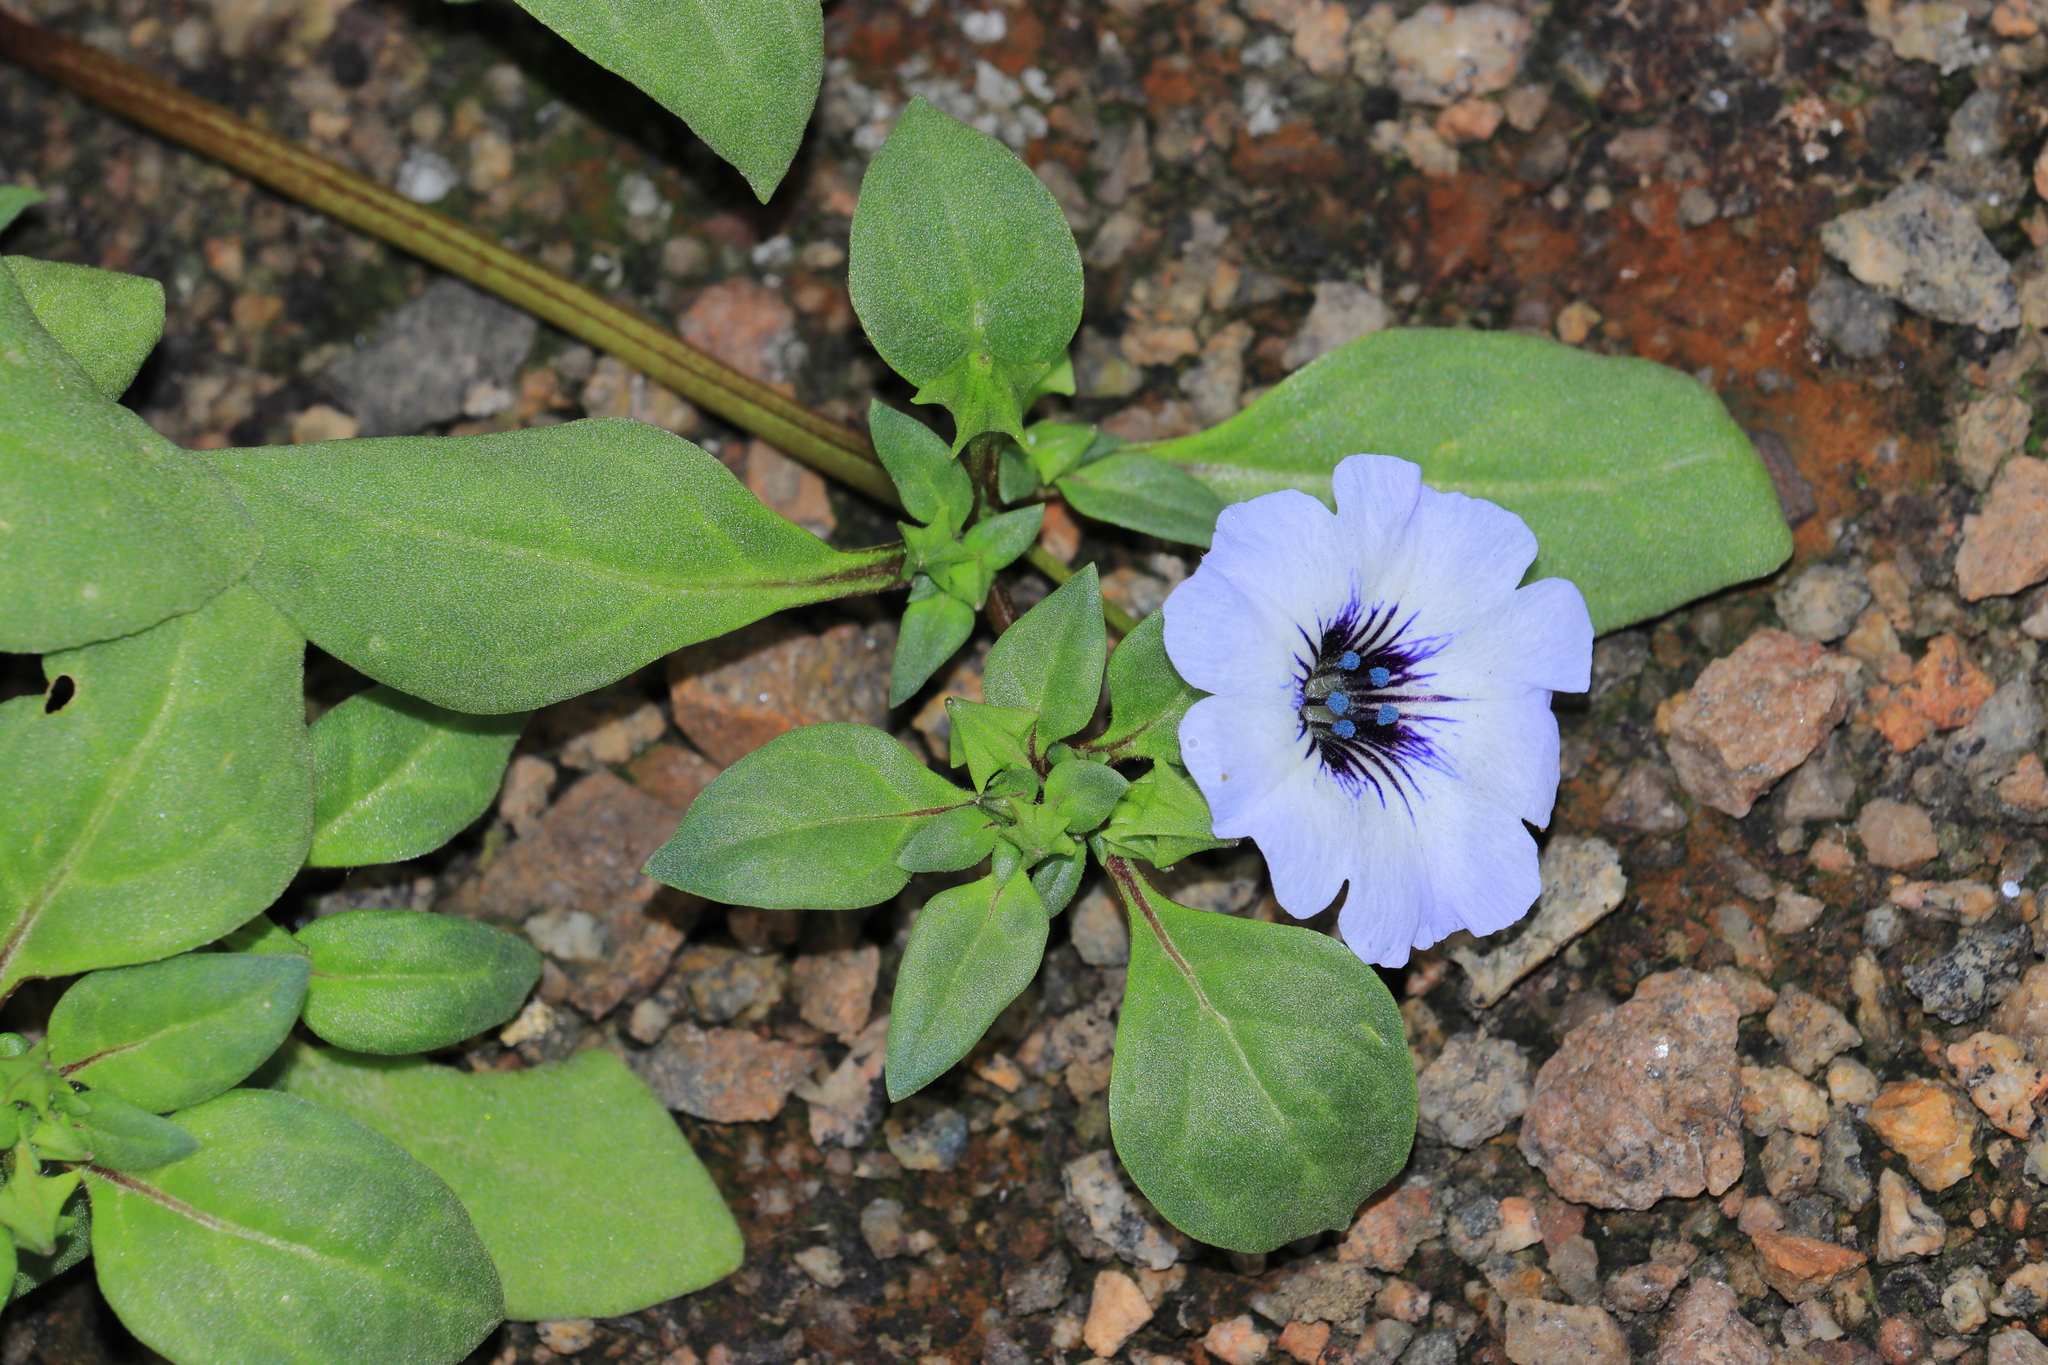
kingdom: Plantae
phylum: Tracheophyta
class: Magnoliopsida
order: Solanales
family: Solanaceae
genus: Nolana
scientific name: Nolana humifusa
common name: Trailing chilean-bellflower
